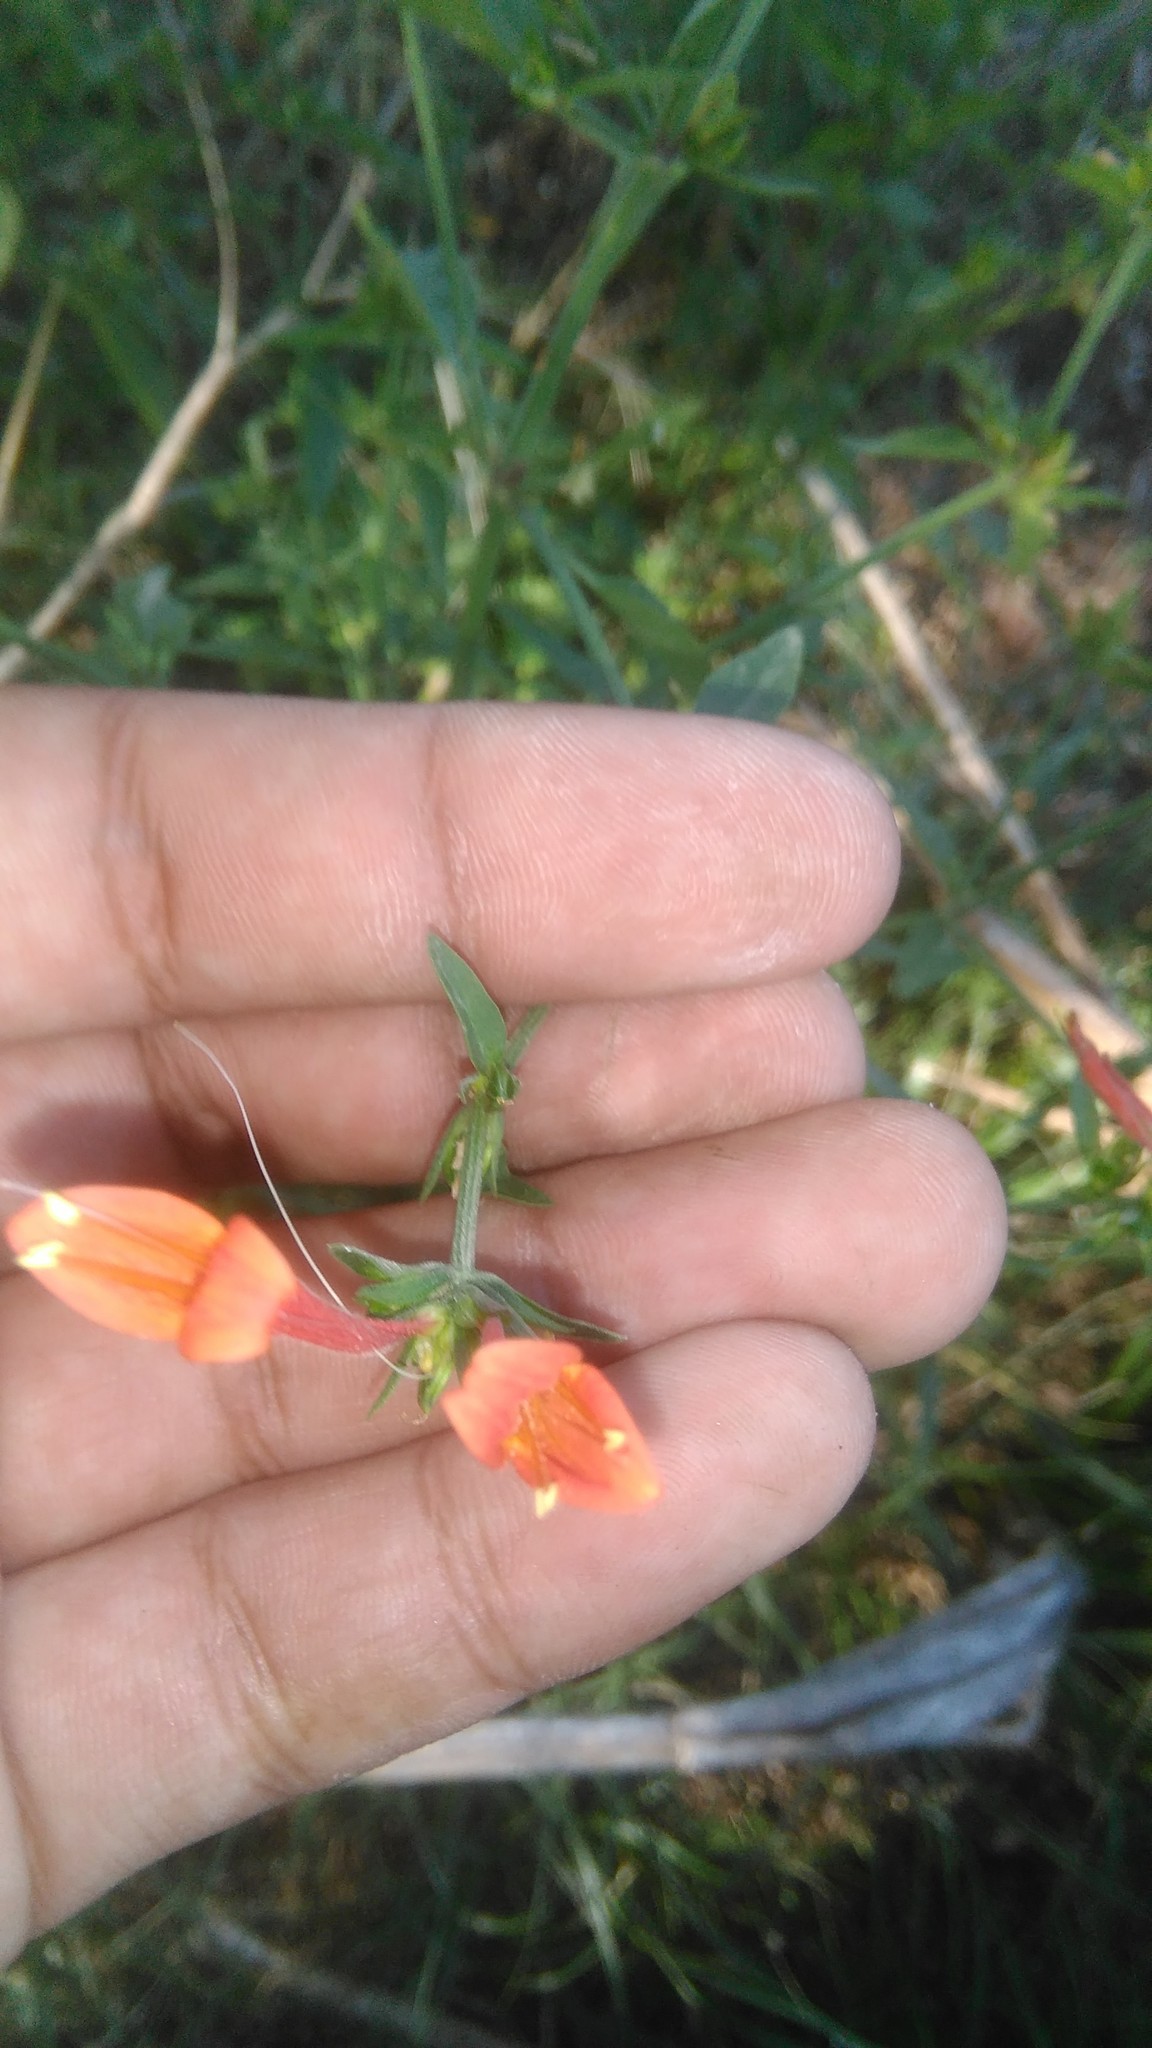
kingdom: Plantae
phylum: Tracheophyta
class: Magnoliopsida
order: Lamiales
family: Acanthaceae
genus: Dicliptera
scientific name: Dicliptera squarrosa
